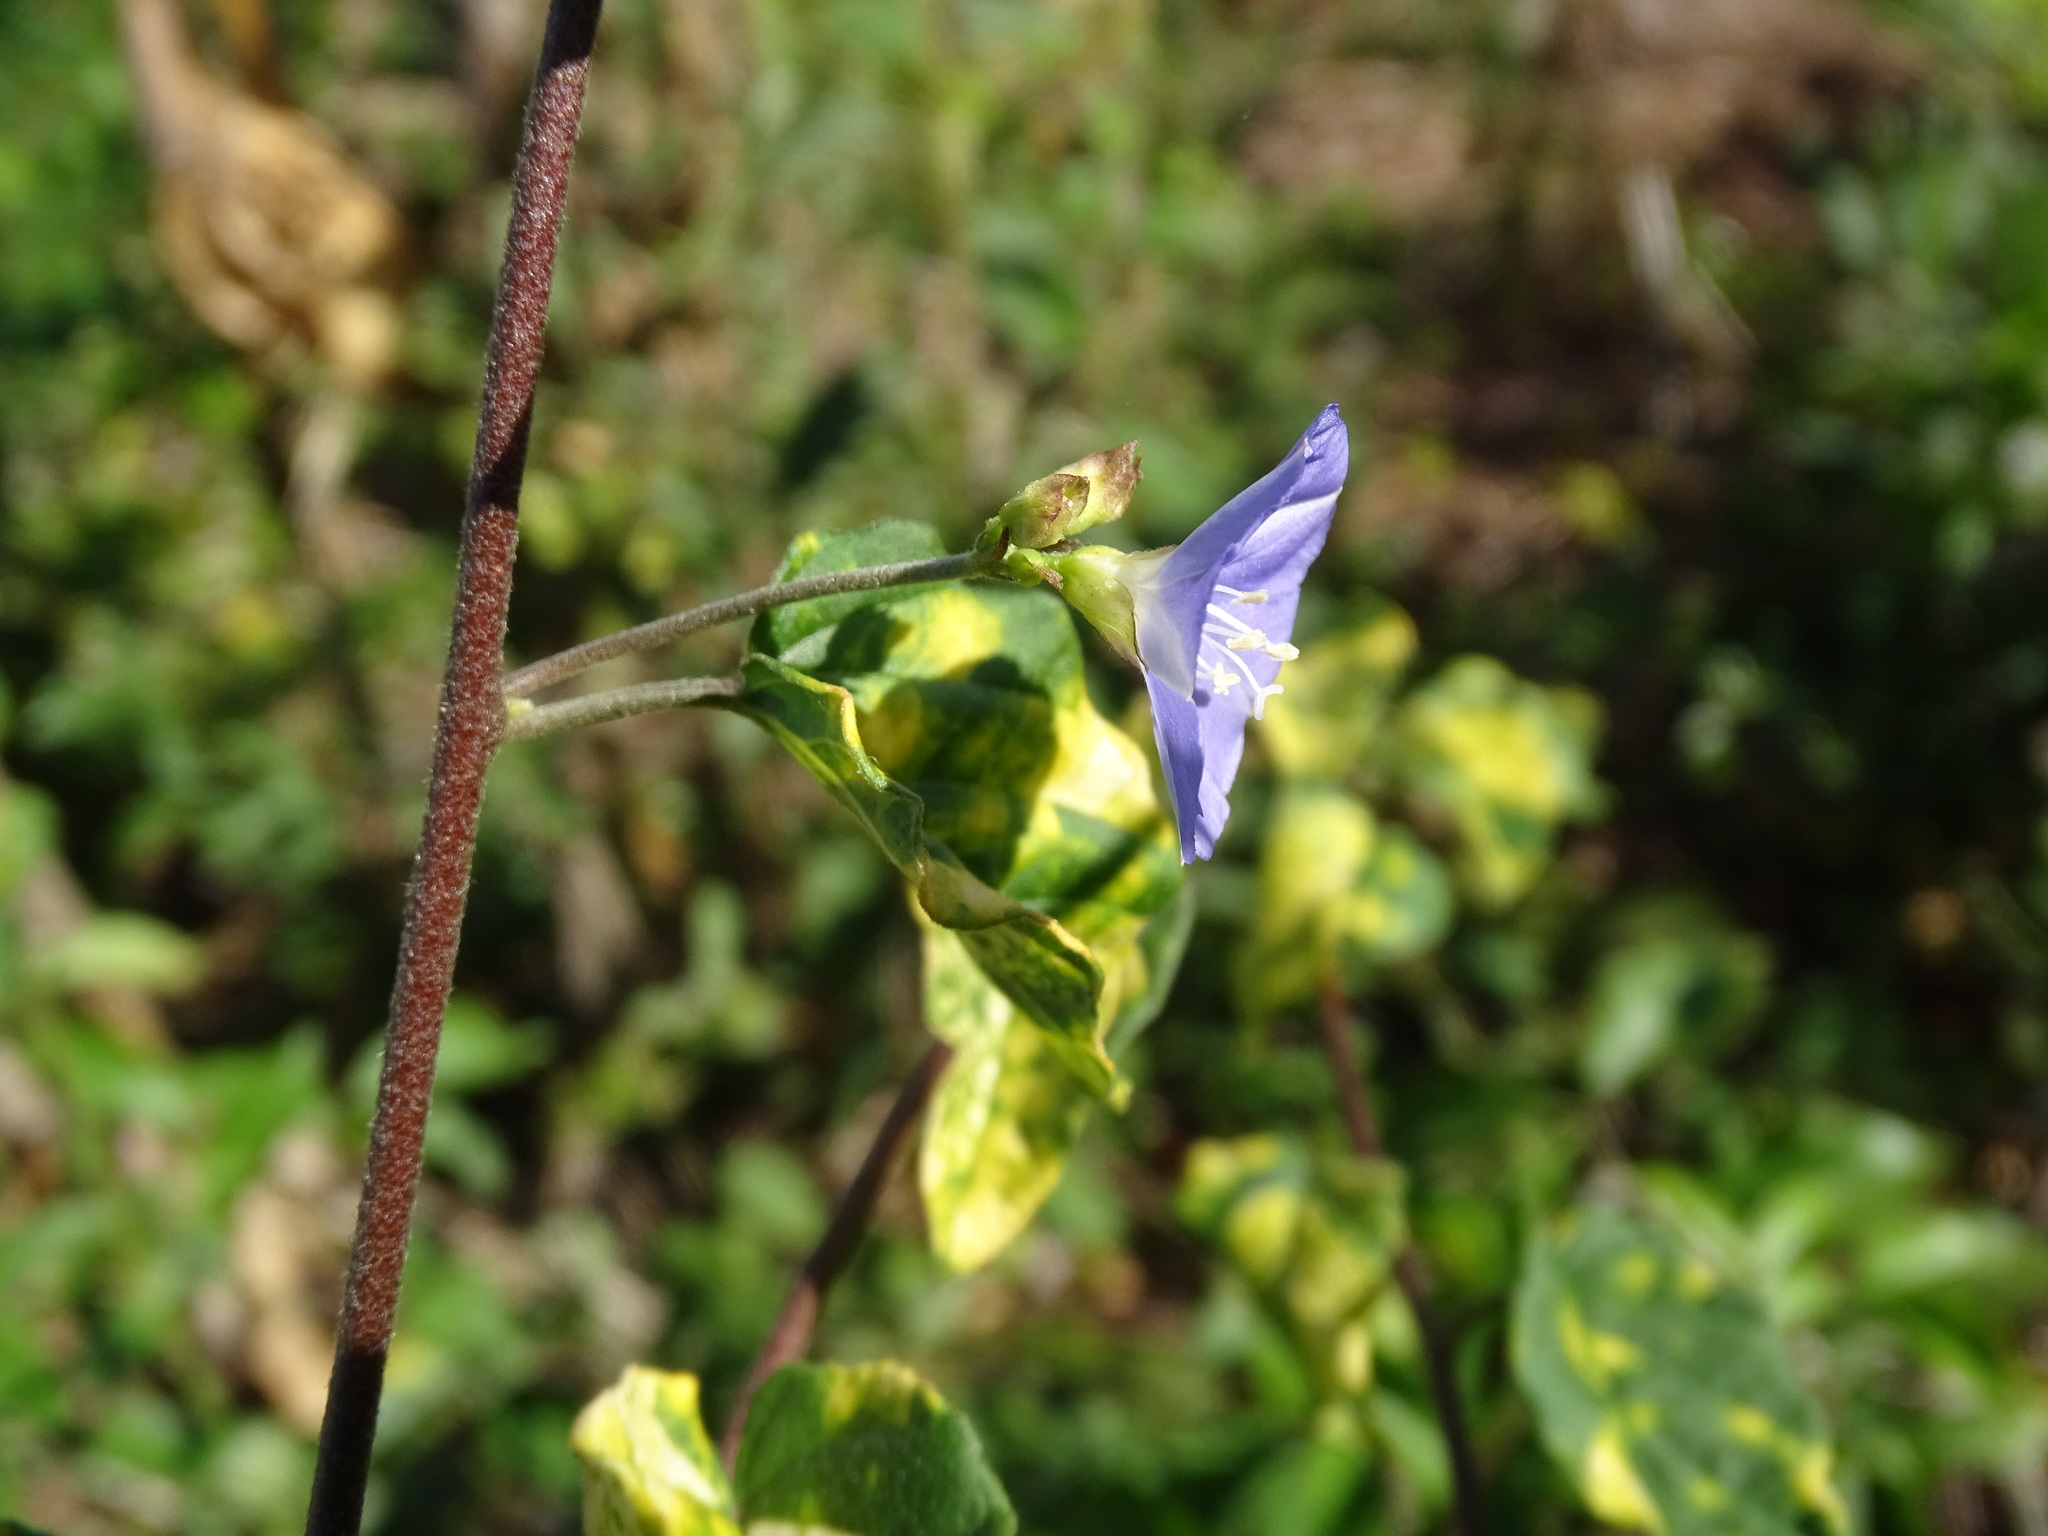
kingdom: Plantae
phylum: Tracheophyta
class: Magnoliopsida
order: Solanales
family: Convolvulaceae
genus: Jacquemontia
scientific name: Jacquemontia pentanthos
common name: Skyblue clustervine
